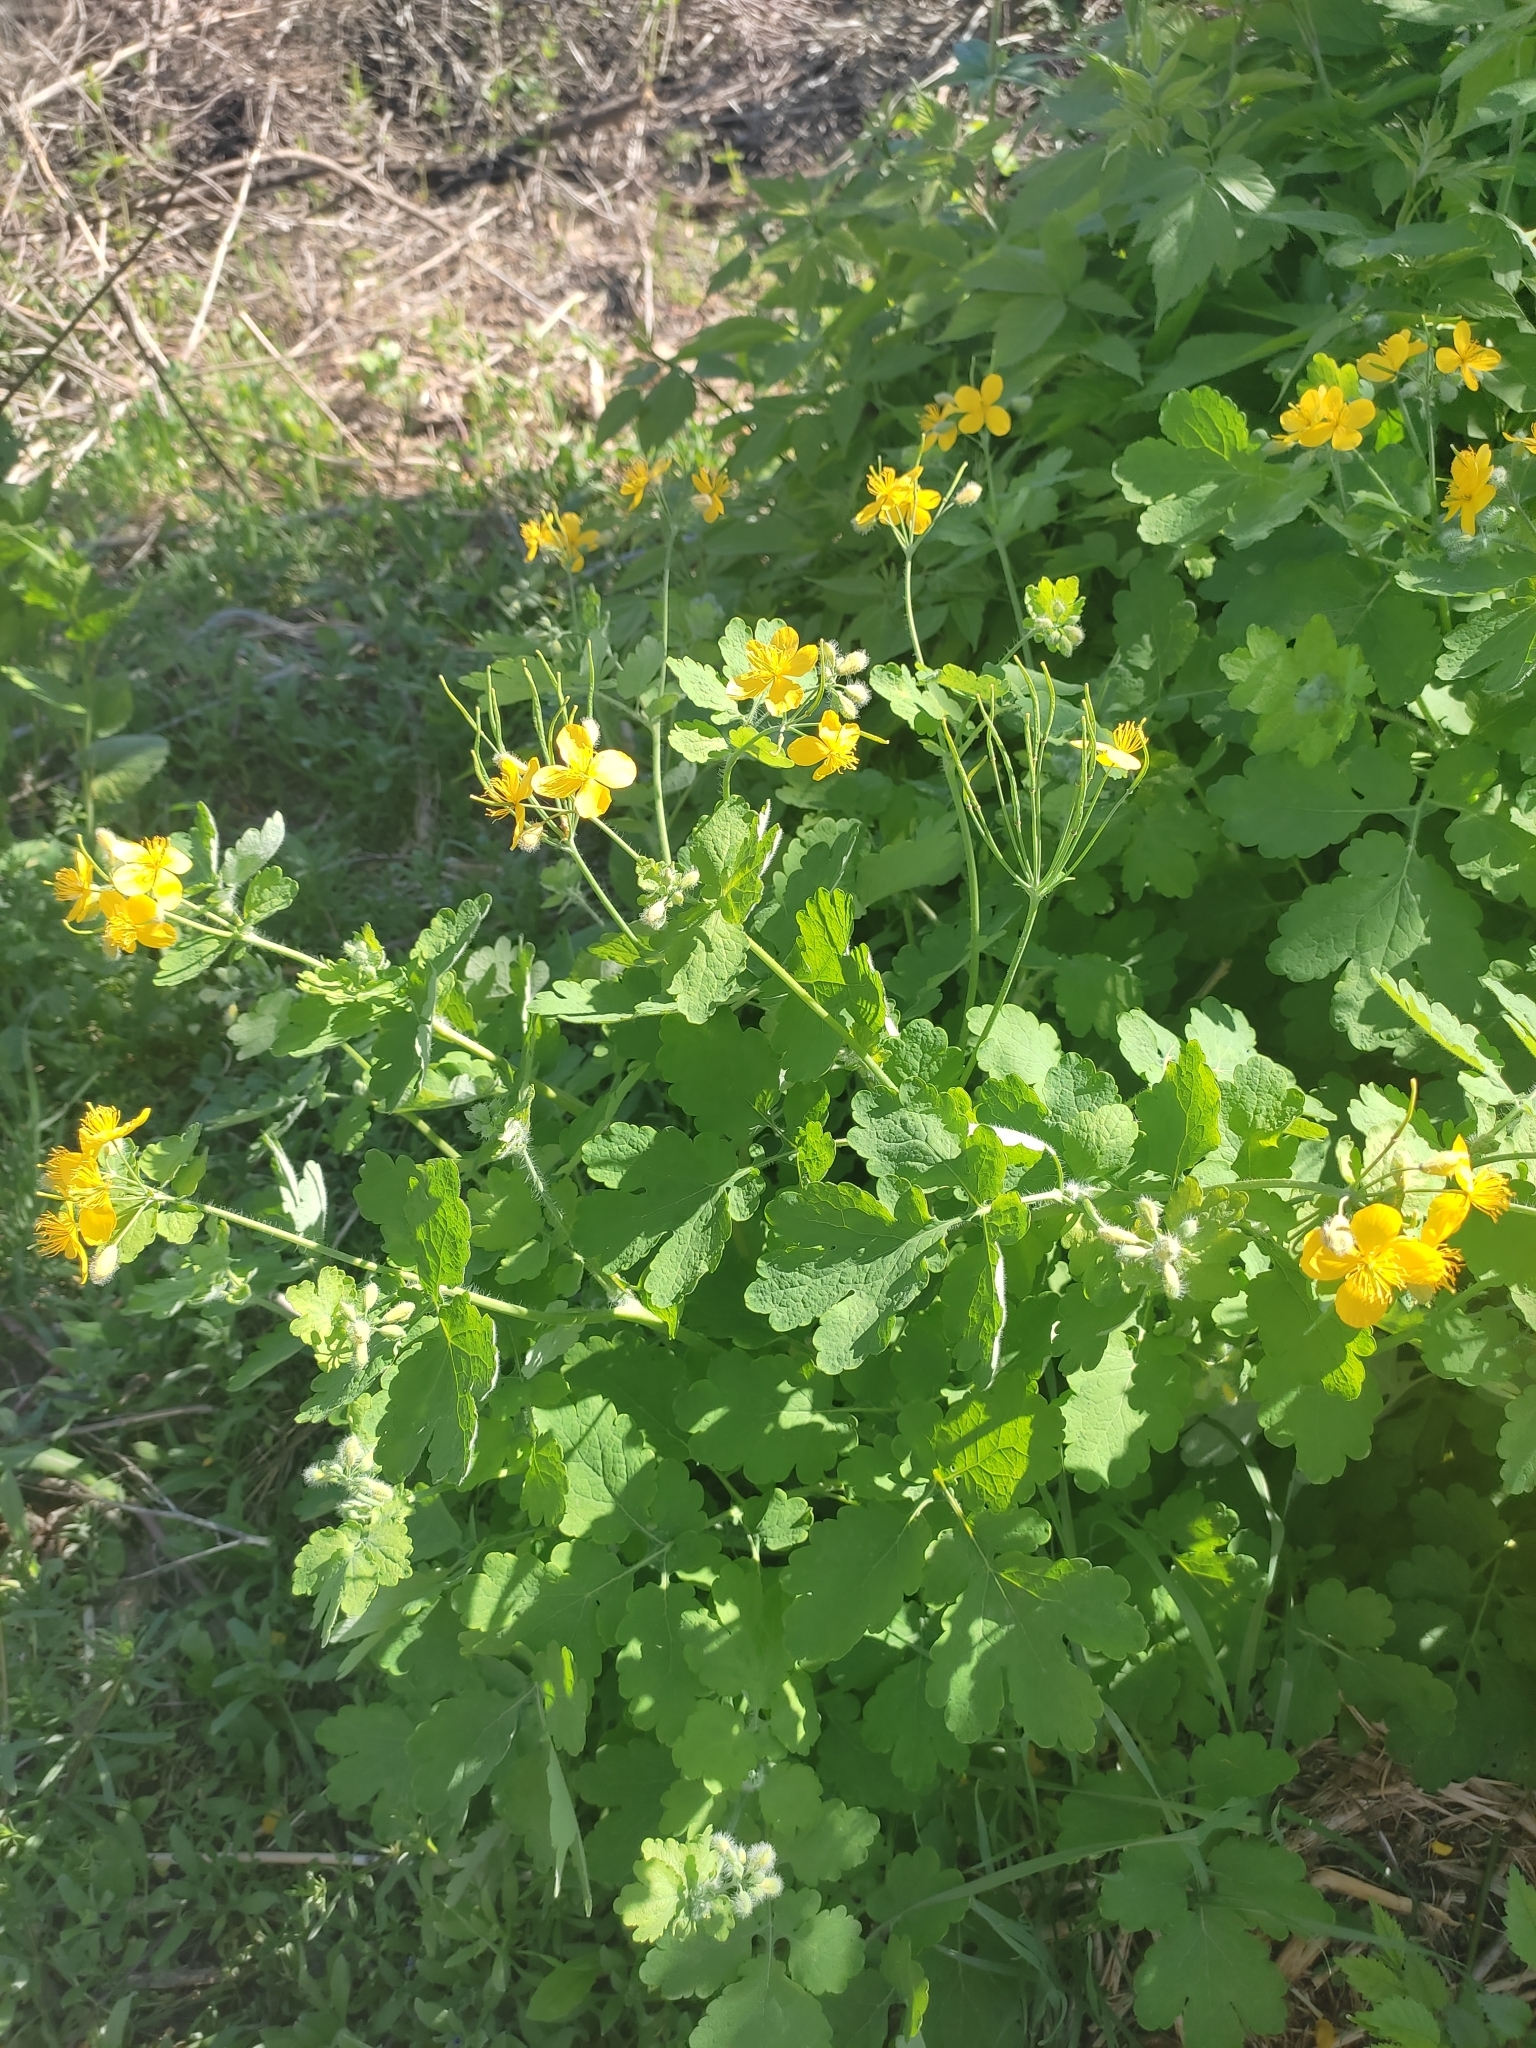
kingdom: Plantae
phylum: Tracheophyta
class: Magnoliopsida
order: Ranunculales
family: Papaveraceae
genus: Chelidonium
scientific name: Chelidonium majus
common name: Greater celandine
